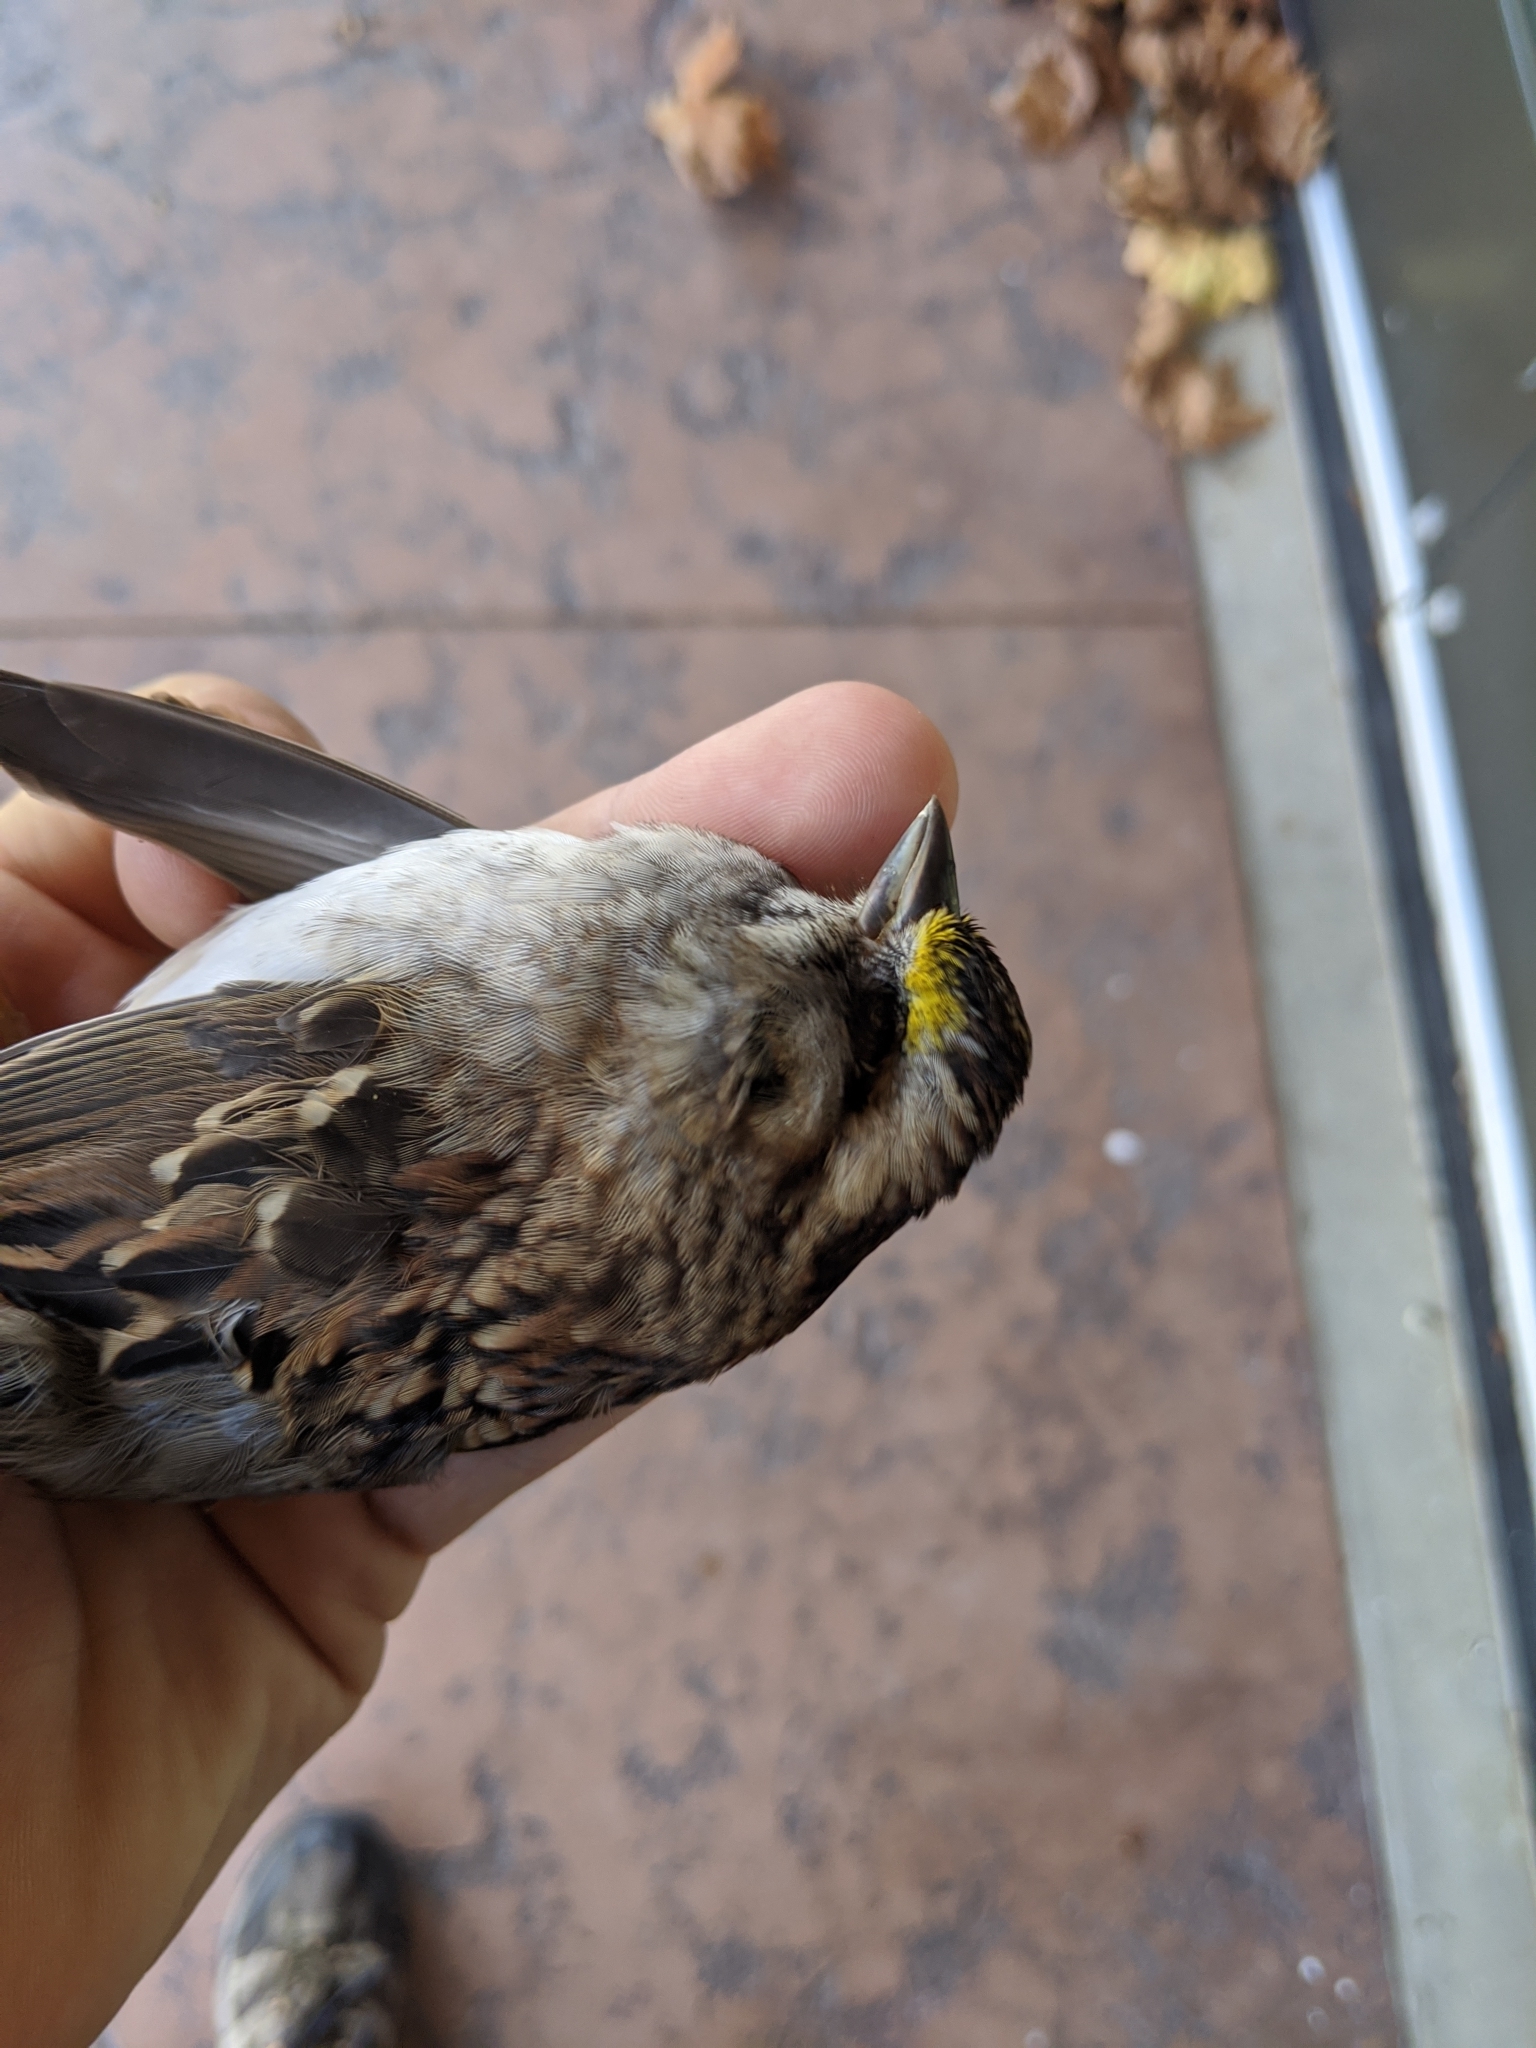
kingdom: Animalia
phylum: Chordata
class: Aves
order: Passeriformes
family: Passerellidae
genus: Zonotrichia
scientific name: Zonotrichia albicollis
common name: White-throated sparrow
